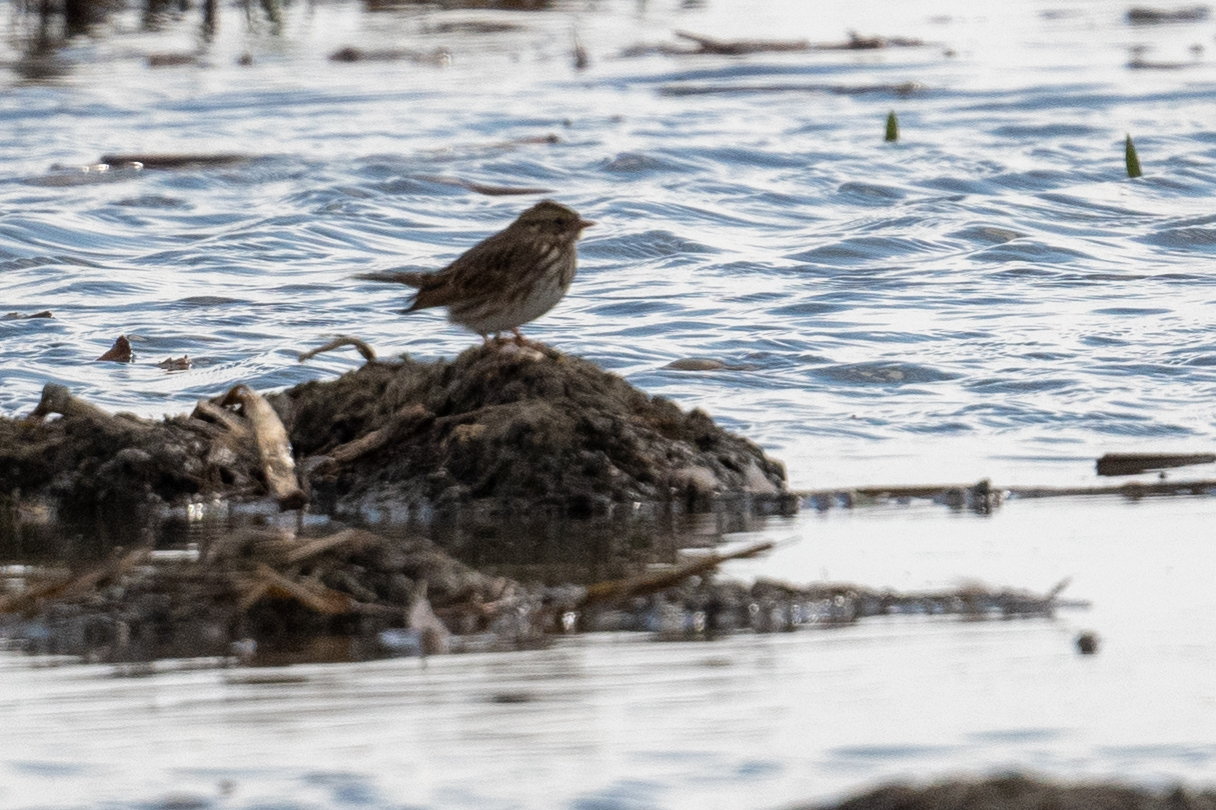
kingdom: Animalia
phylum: Chordata
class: Aves
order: Passeriformes
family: Passerellidae
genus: Passerculus
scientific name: Passerculus sandwichensis
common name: Savannah sparrow
